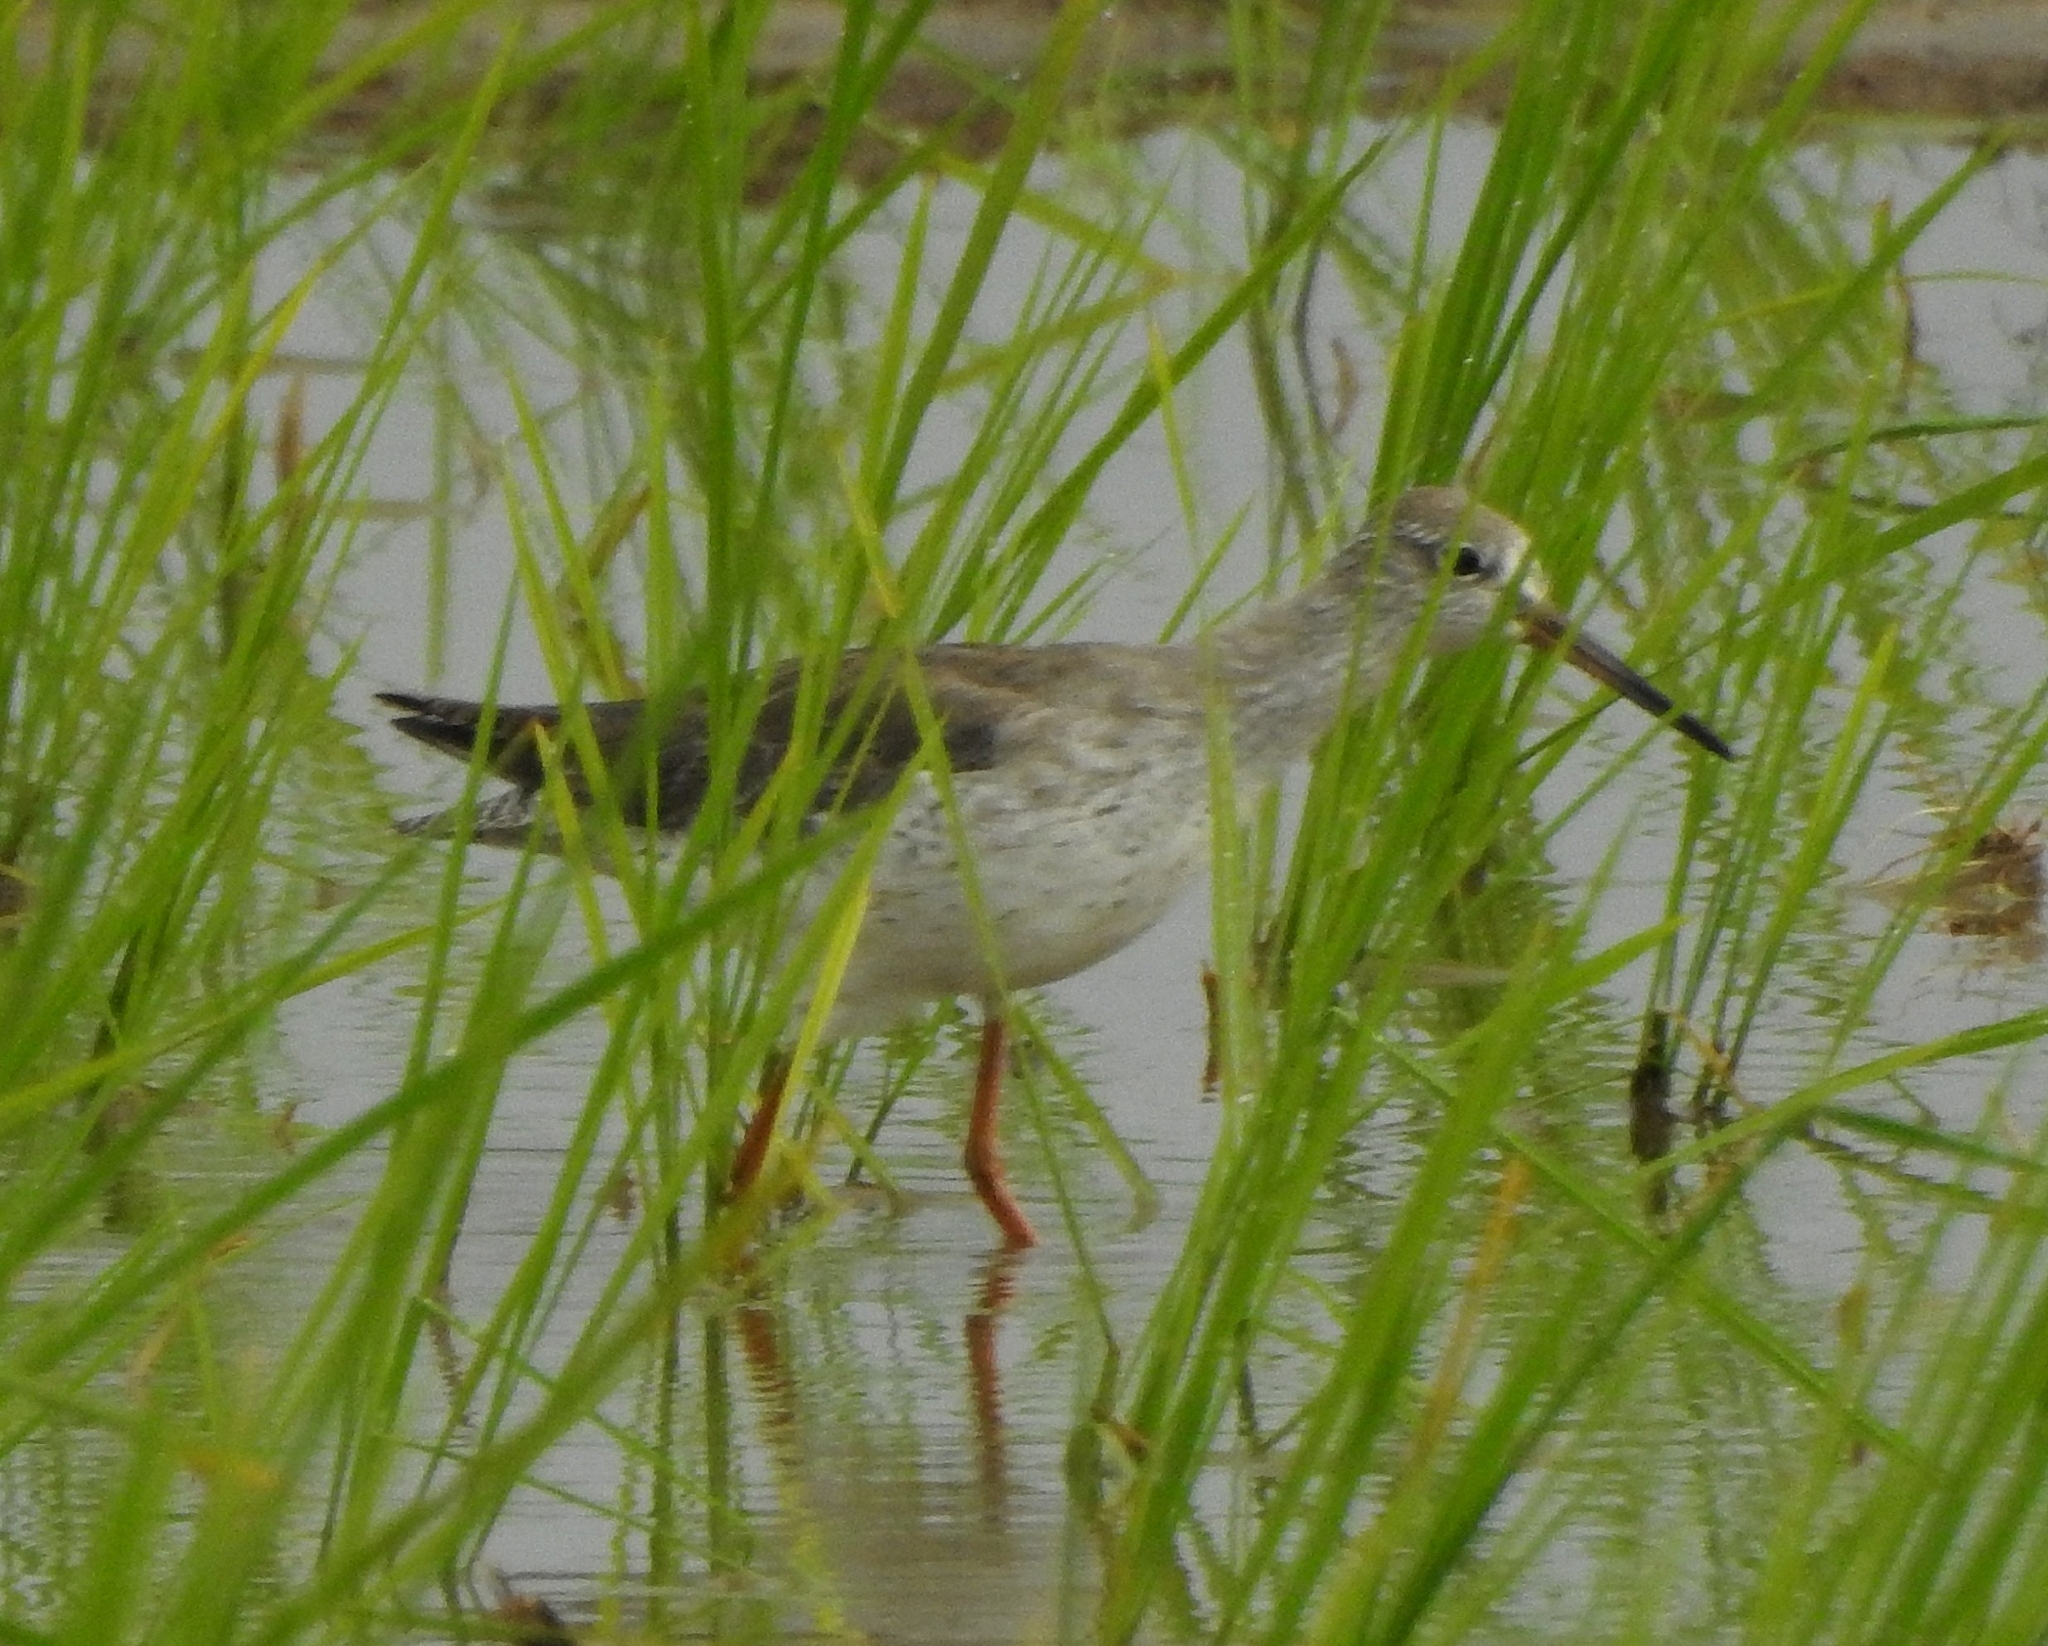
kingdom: Animalia
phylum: Chordata
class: Aves
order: Charadriiformes
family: Scolopacidae
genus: Tringa
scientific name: Tringa totanus
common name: Common redshank
